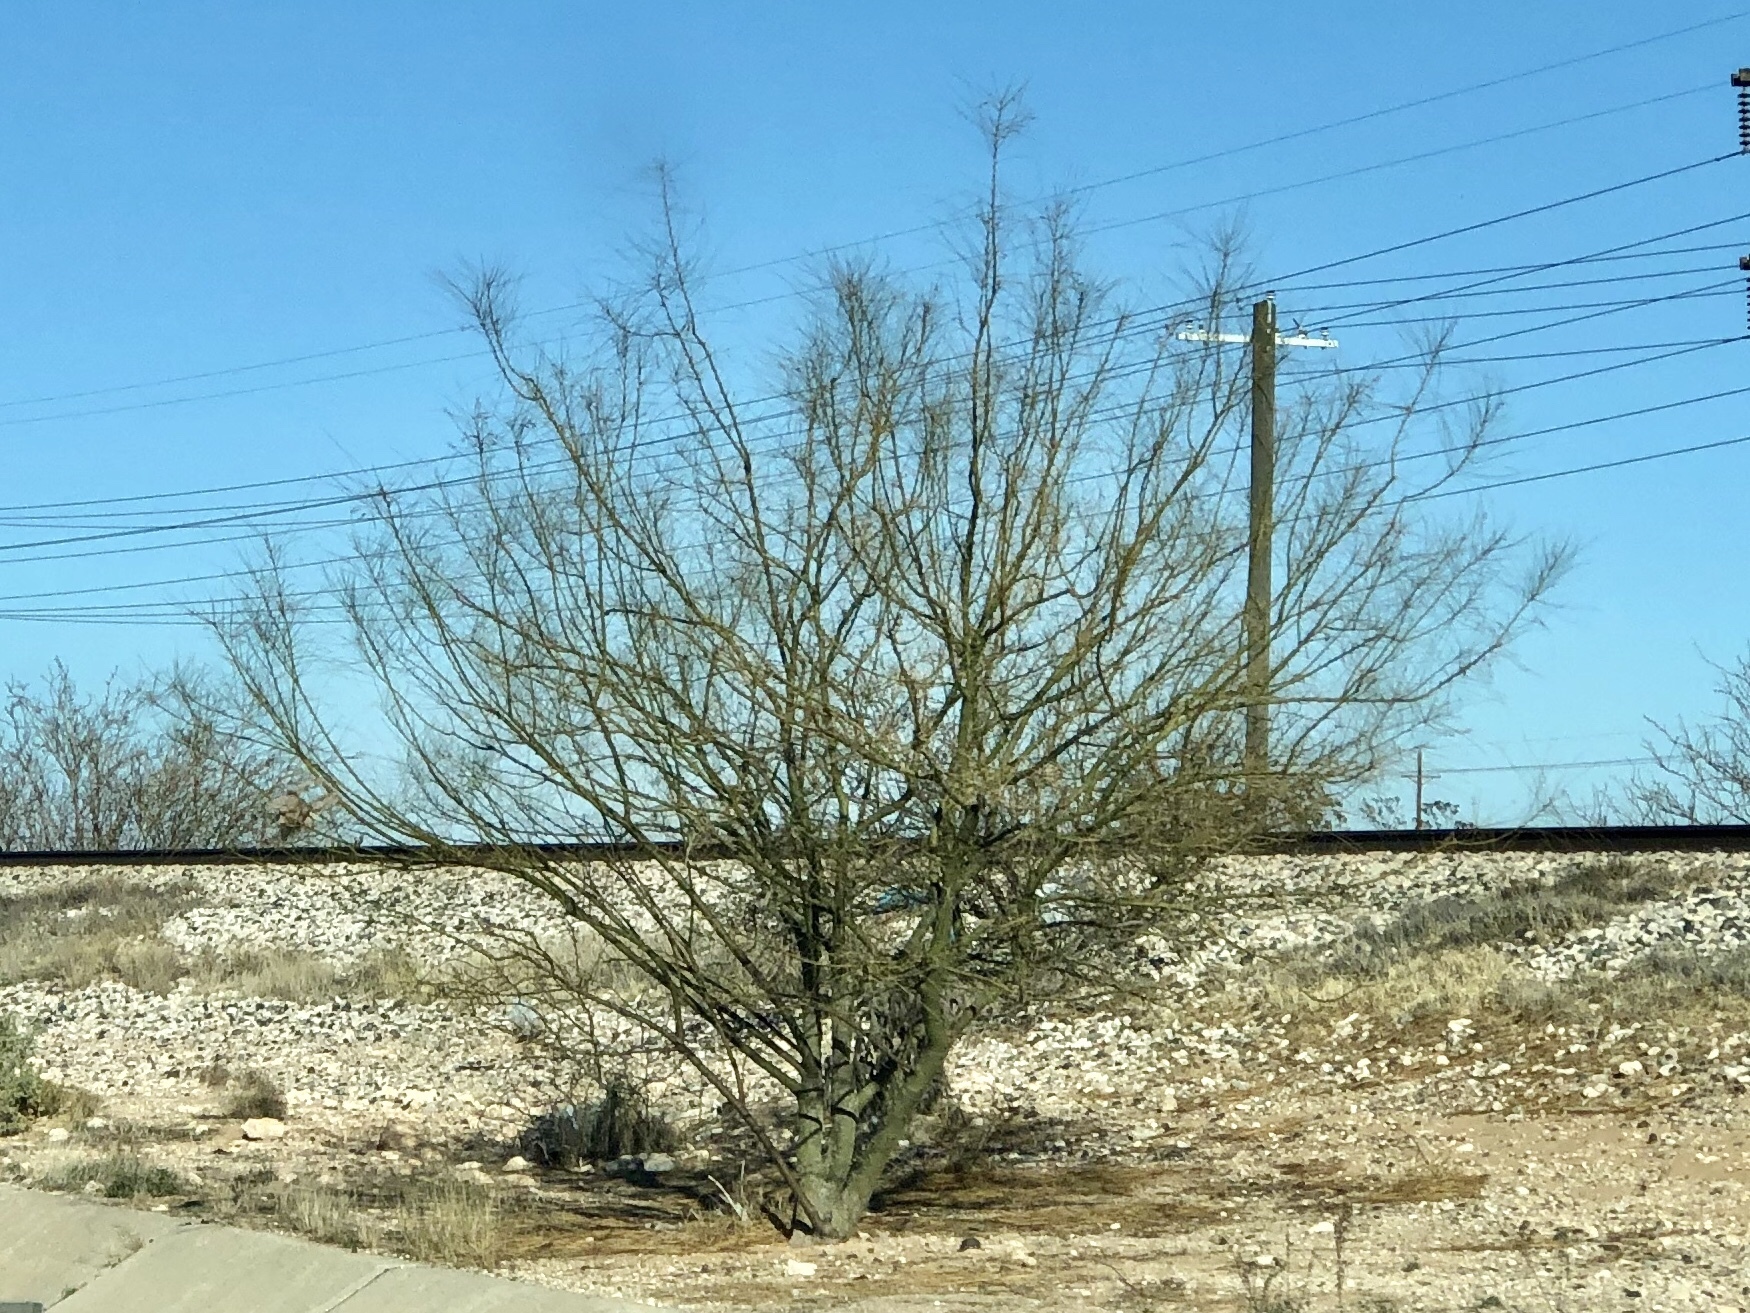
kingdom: Plantae
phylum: Tracheophyta
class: Magnoliopsida
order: Fabales
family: Fabaceae
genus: Parkinsonia
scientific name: Parkinsonia aculeata
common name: Jerusalem thorn
